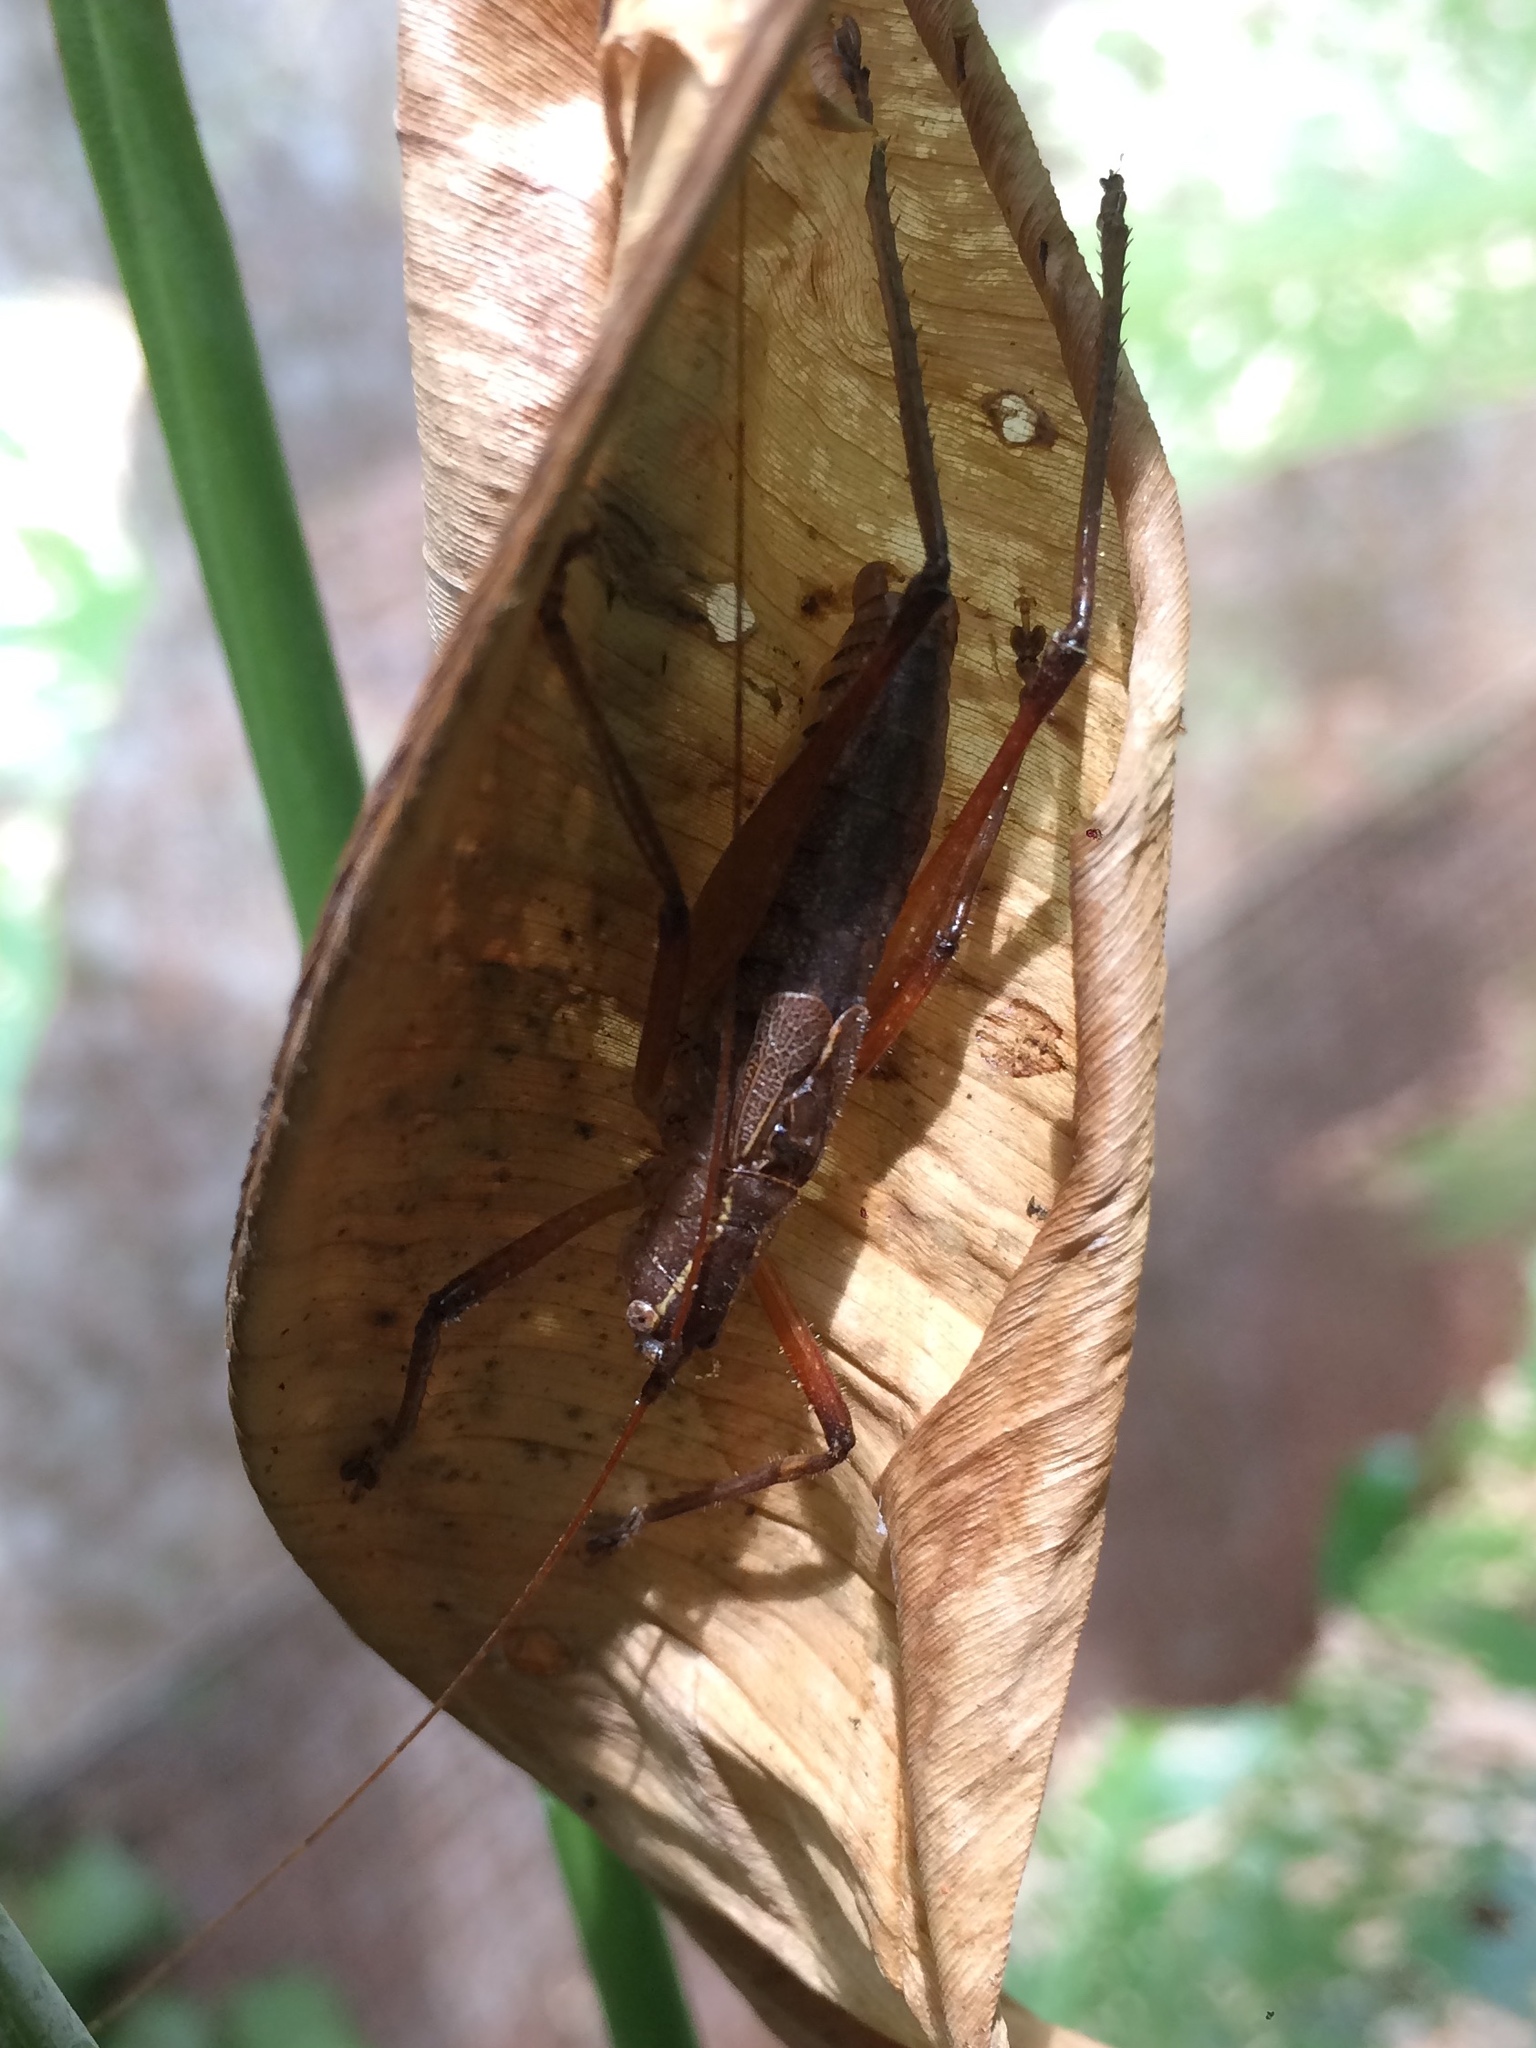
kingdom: Animalia
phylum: Arthropoda
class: Insecta
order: Orthoptera
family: Tettigoniidae
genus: Brachyteleutias
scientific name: Brachyteleutias bilineatus
